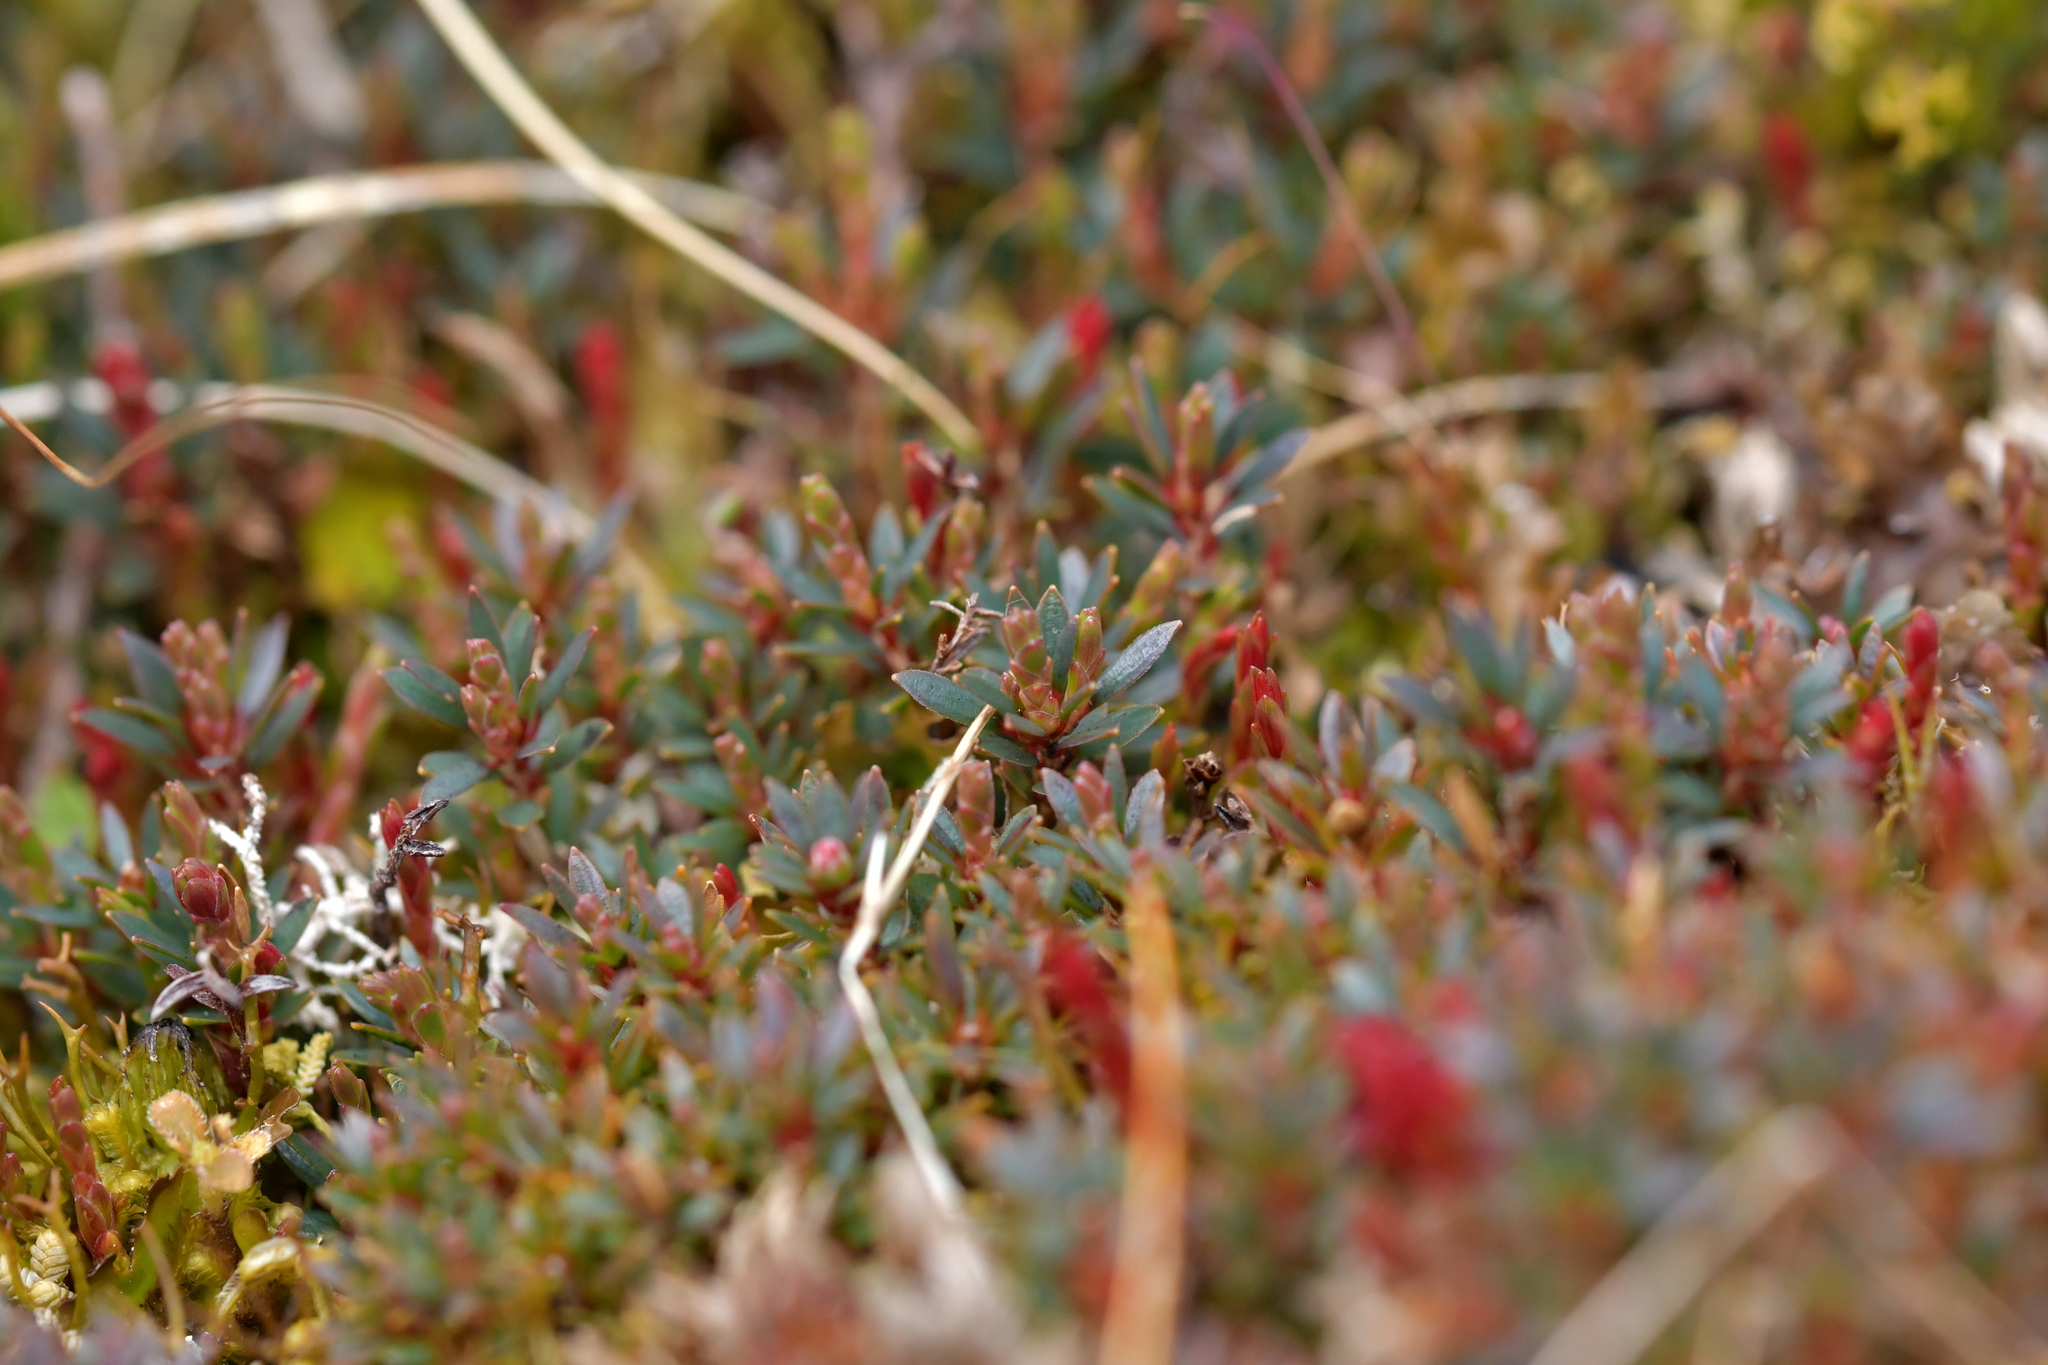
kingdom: Plantae
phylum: Tracheophyta
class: Magnoliopsida
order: Ericales
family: Ericaceae
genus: Pentachondra
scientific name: Pentachondra pumila
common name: Carpet-heath
